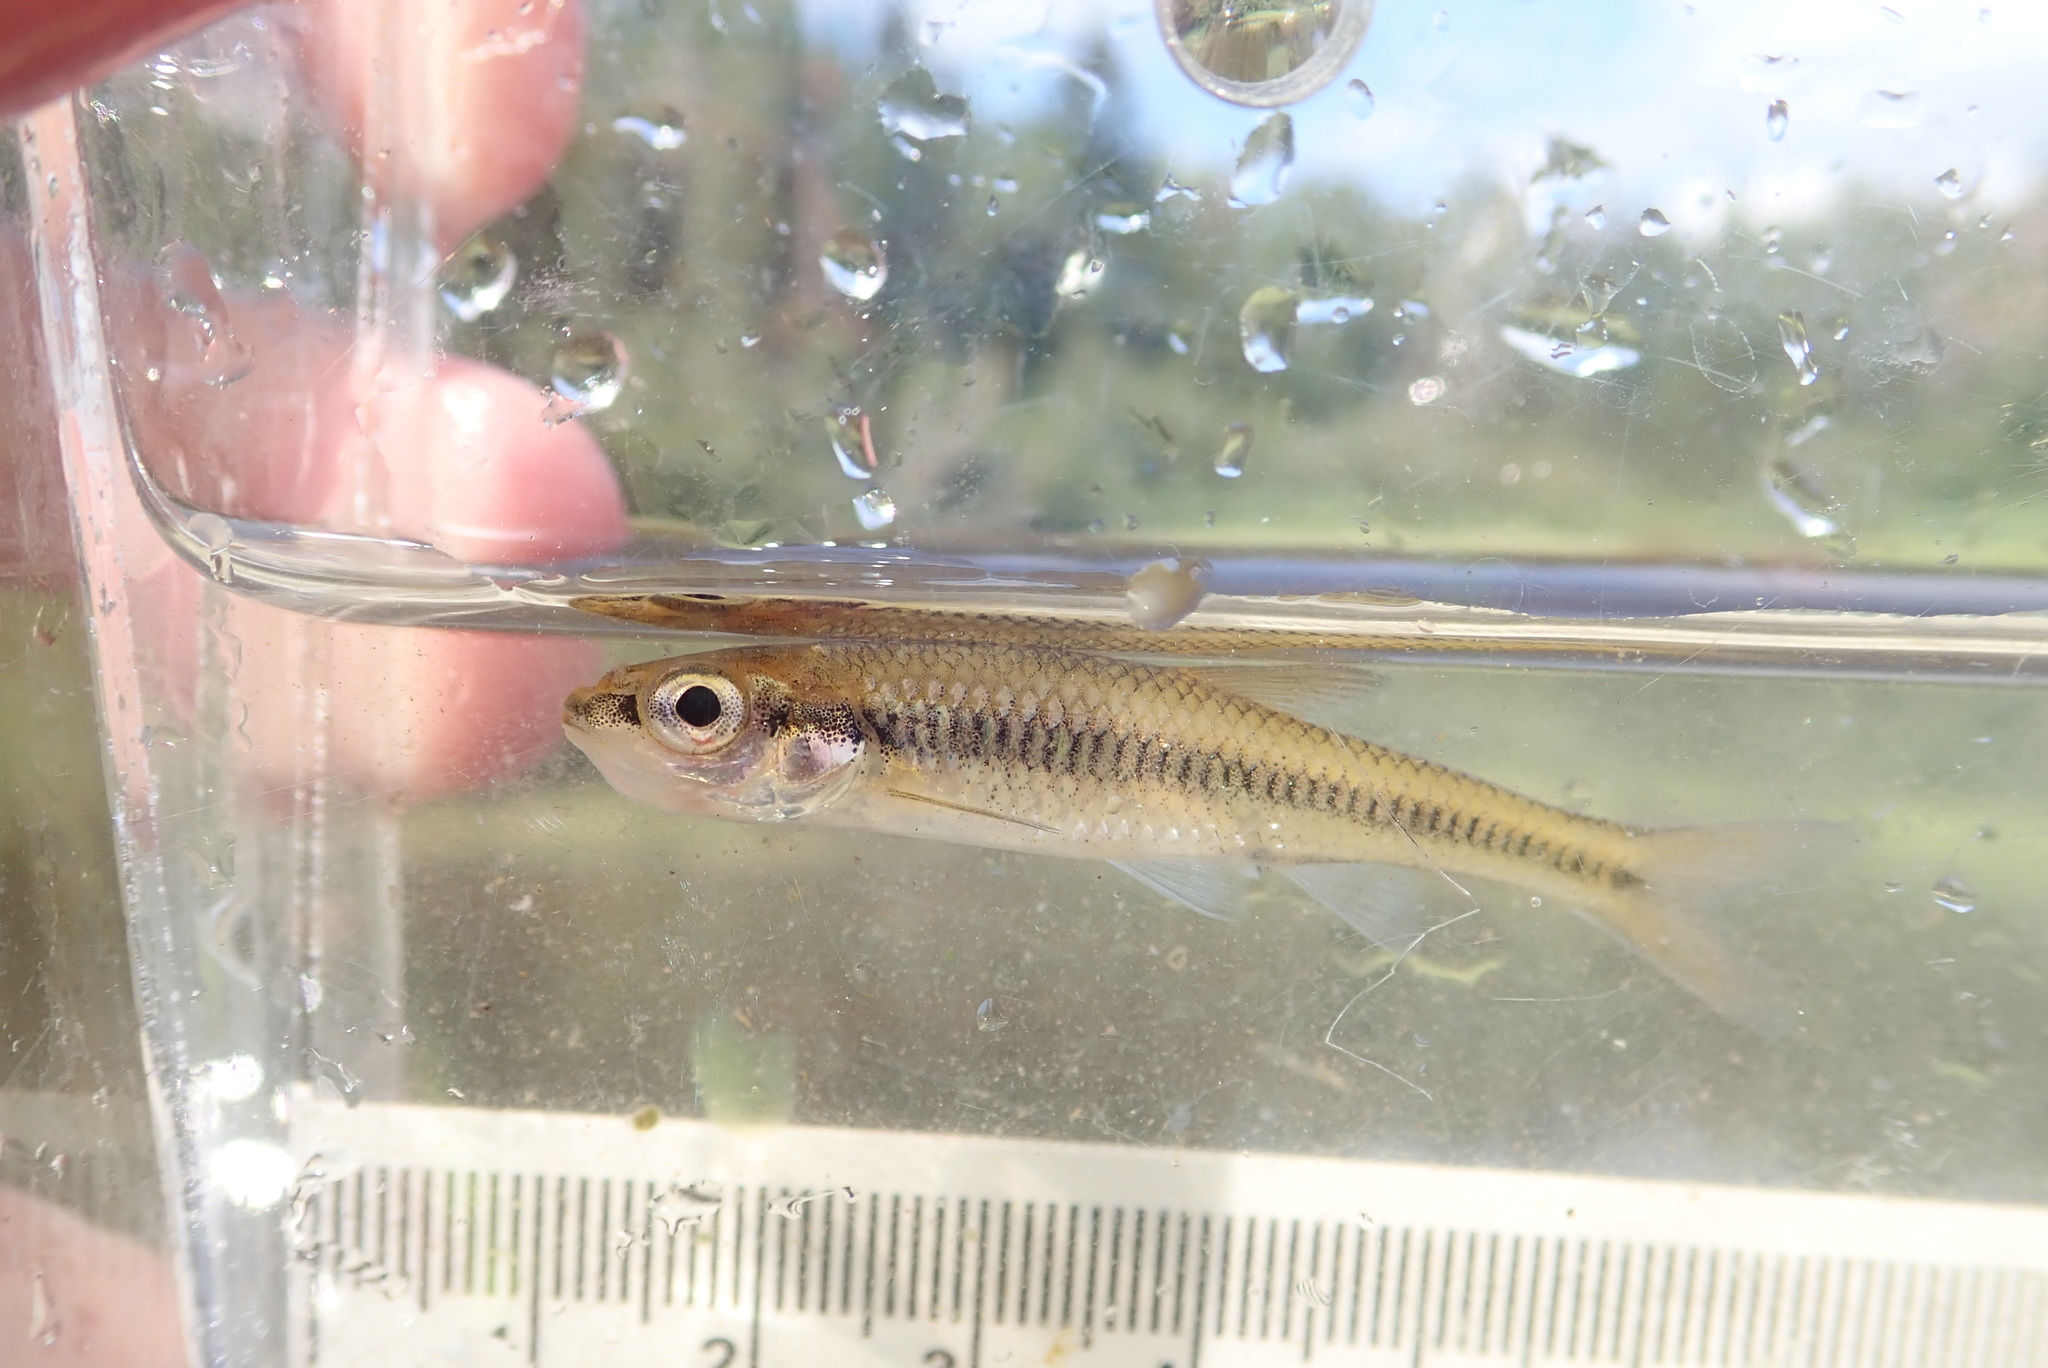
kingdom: Animalia
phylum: Chordata
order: Cypriniformes
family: Cyprinidae
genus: Notropis
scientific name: Notropis heterolepis
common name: Blacknose shiner
